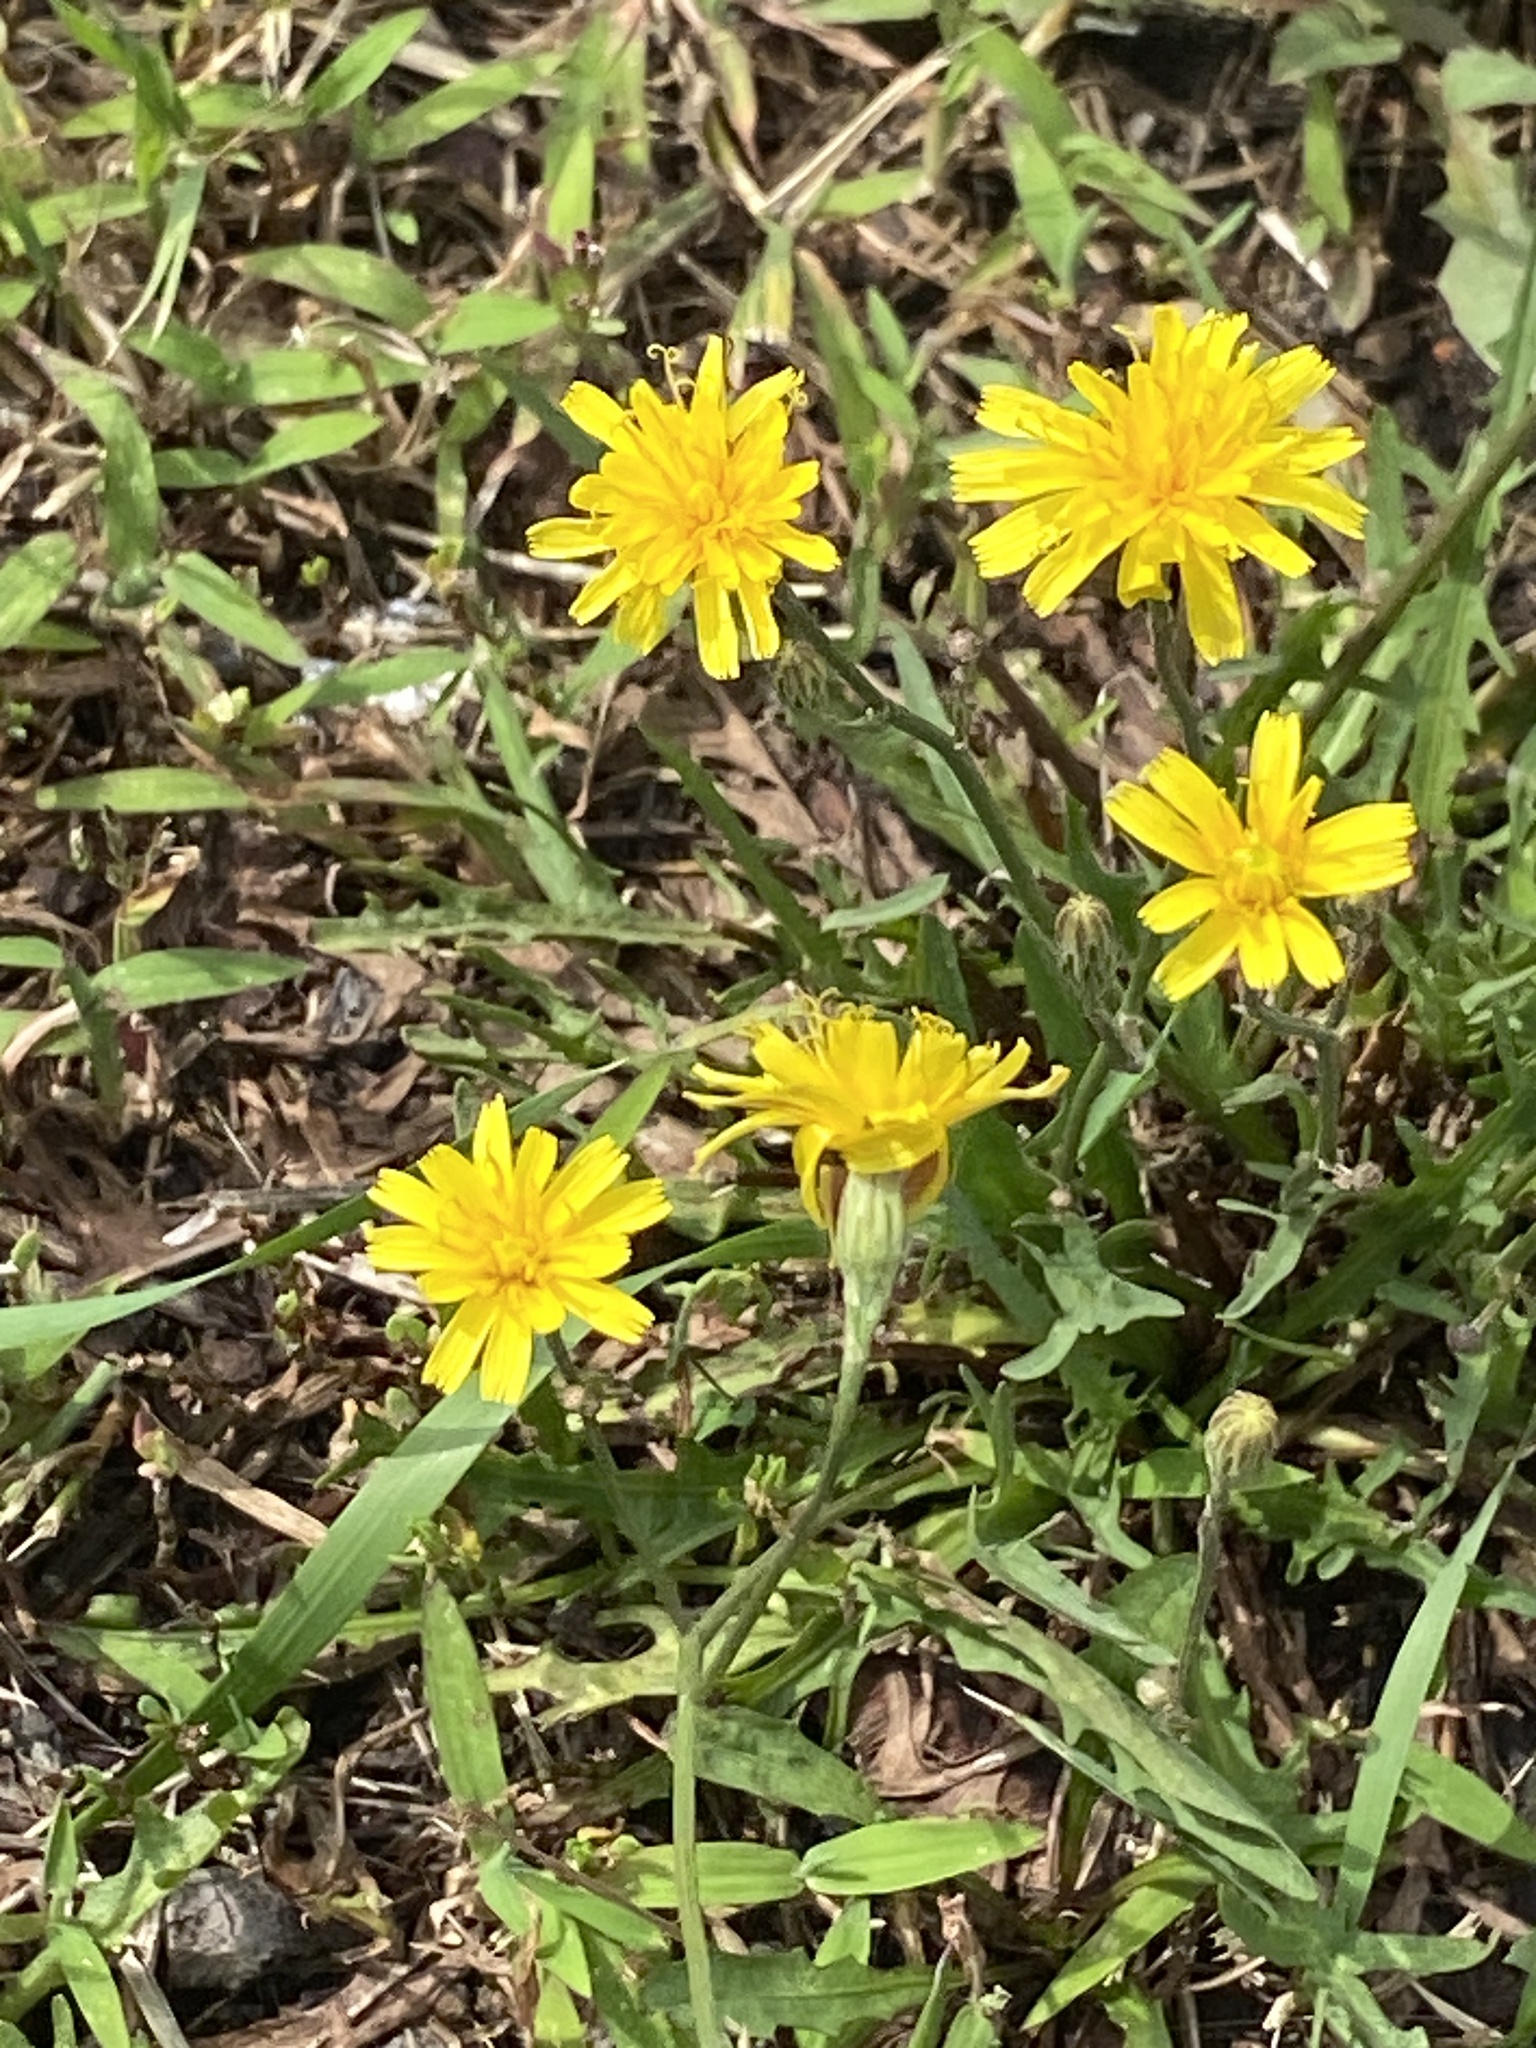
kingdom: Plantae
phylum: Tracheophyta
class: Magnoliopsida
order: Asterales
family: Asteraceae
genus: Scorzoneroides
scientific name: Scorzoneroides autumnalis
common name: Autumn hawkbit
